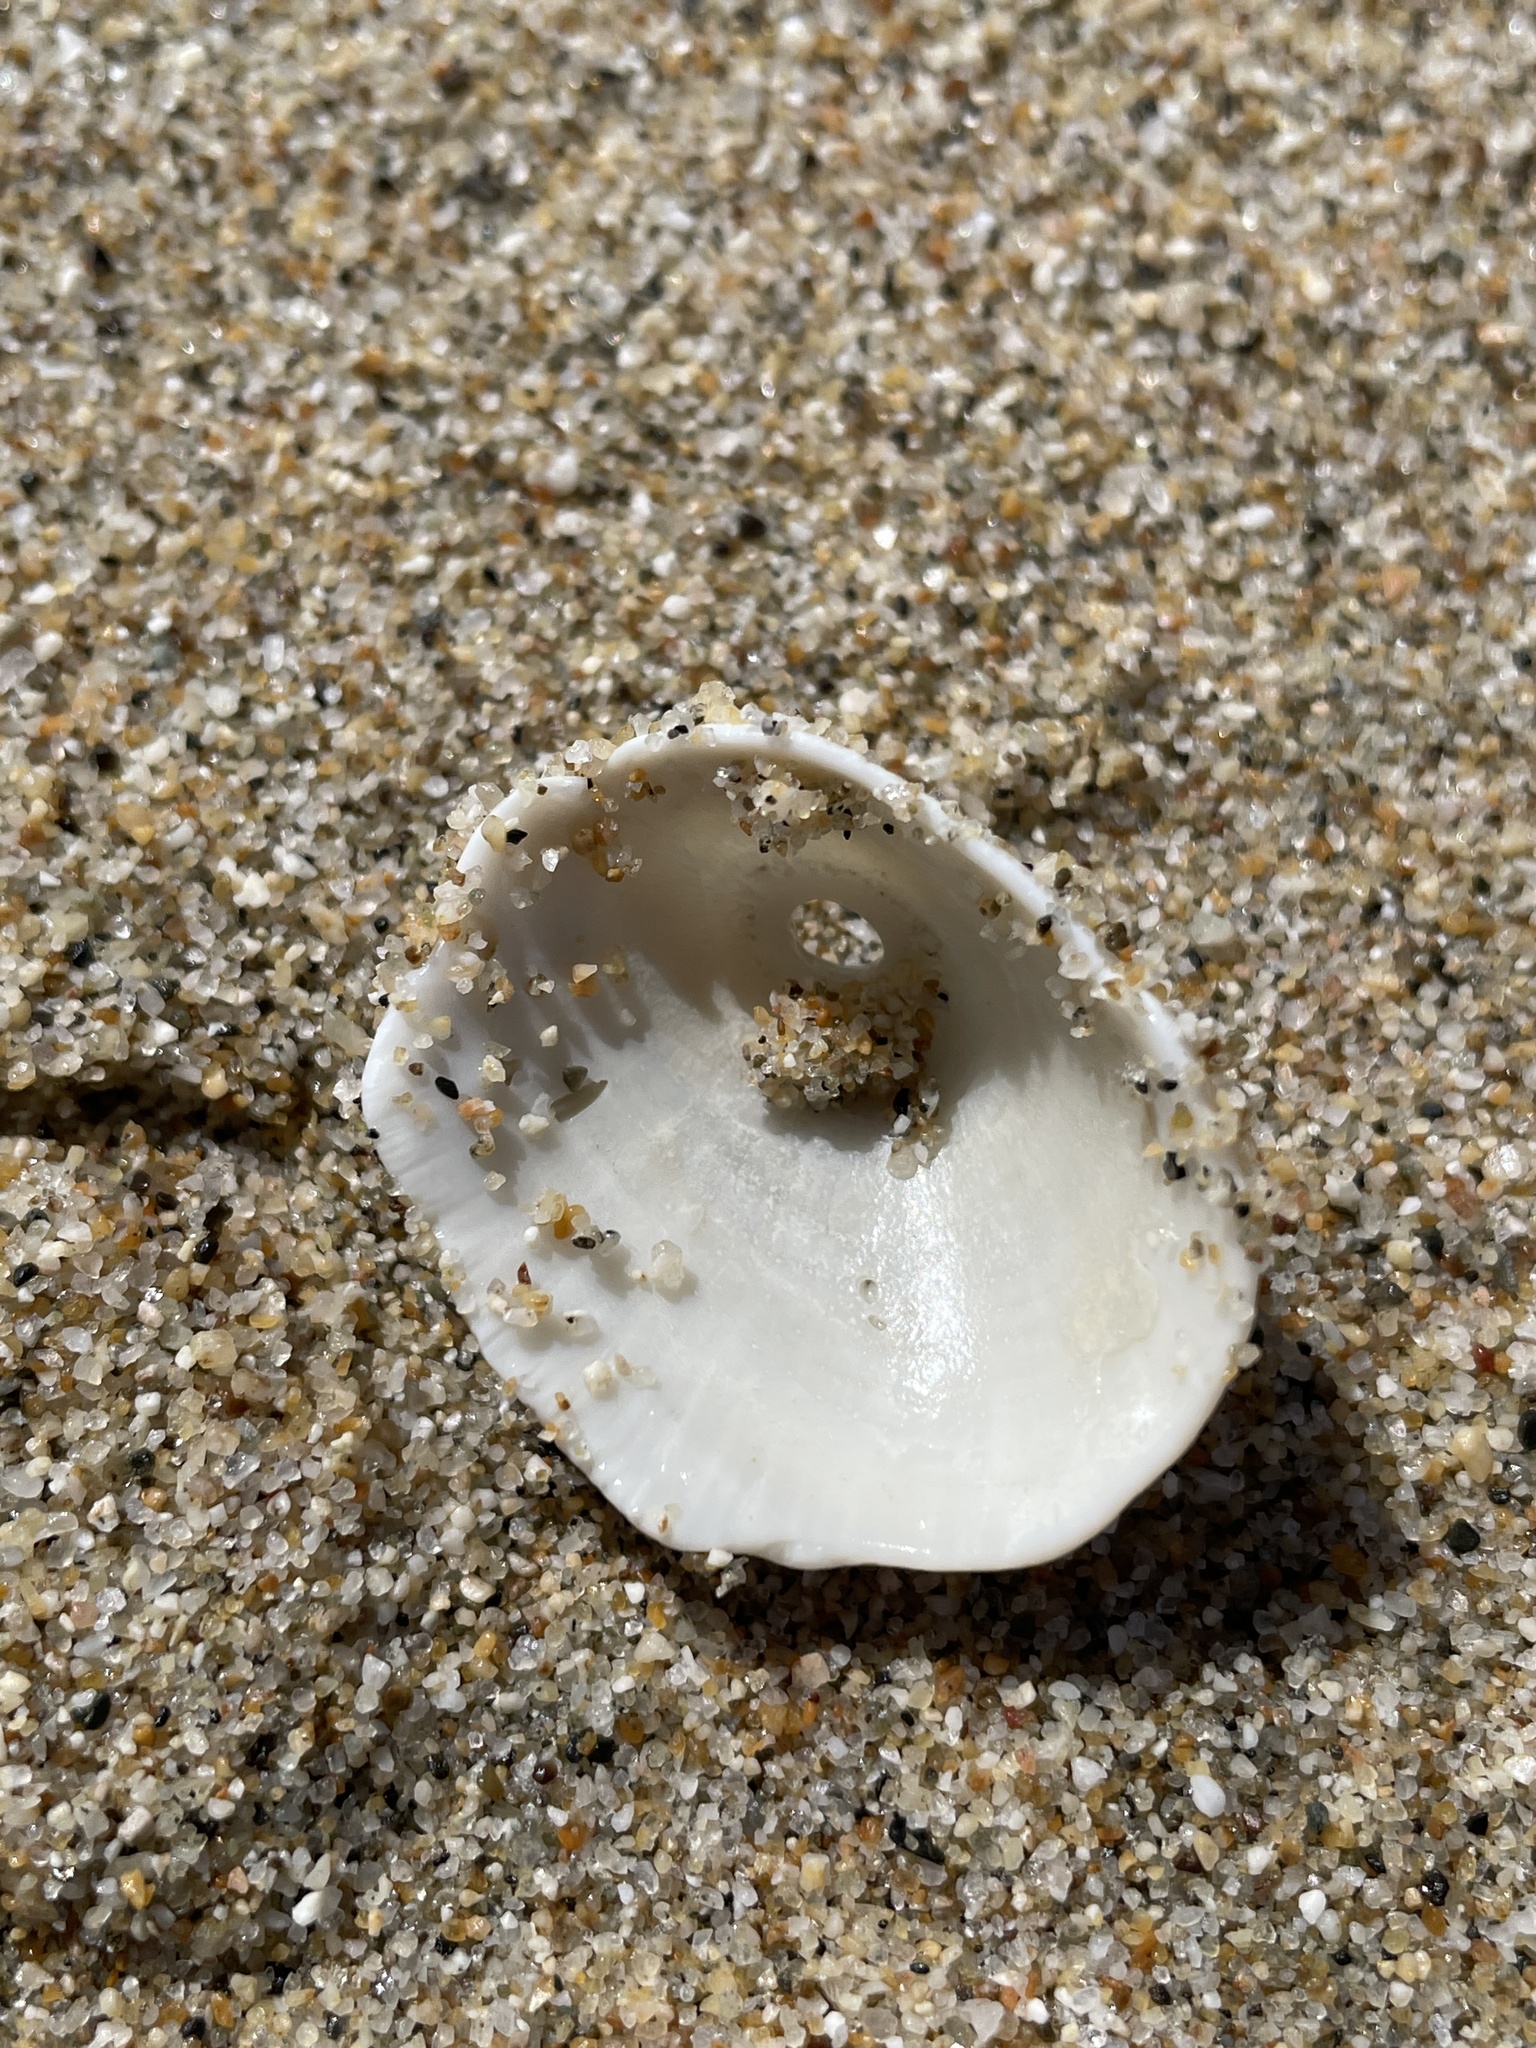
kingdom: Animalia
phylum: Mollusca
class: Gastropoda
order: Lepetellida
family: Fissurellidae
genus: Diodora
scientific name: Diodora aspera
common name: Rough keyhole limpet
